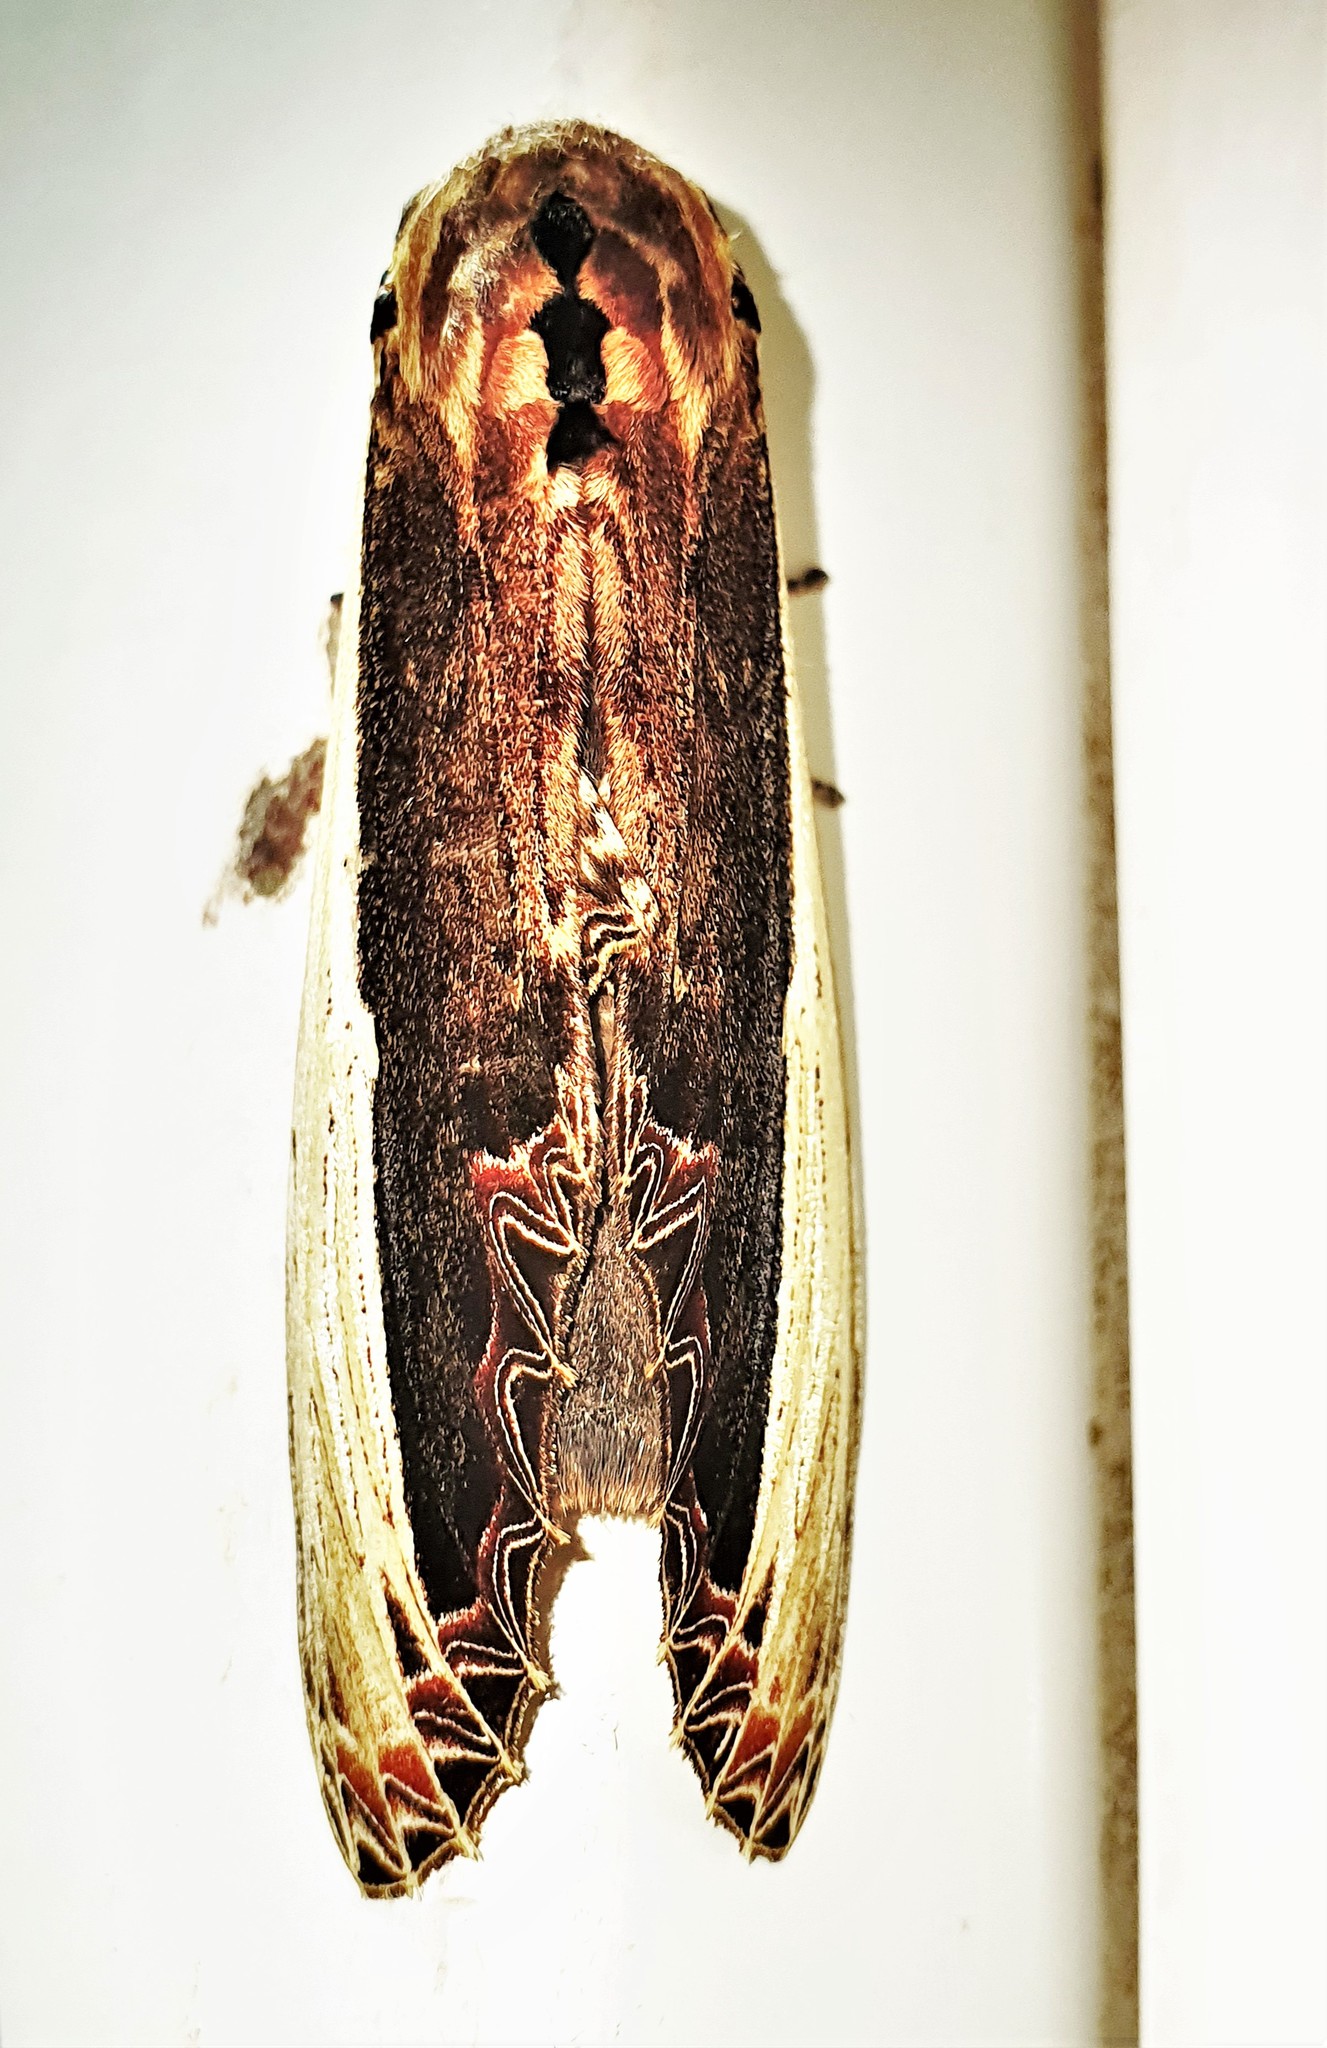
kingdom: Animalia
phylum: Arthropoda
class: Insecta
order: Lepidoptera
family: Notodontidae
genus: Truncaptera
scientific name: Truncaptera gigantea
